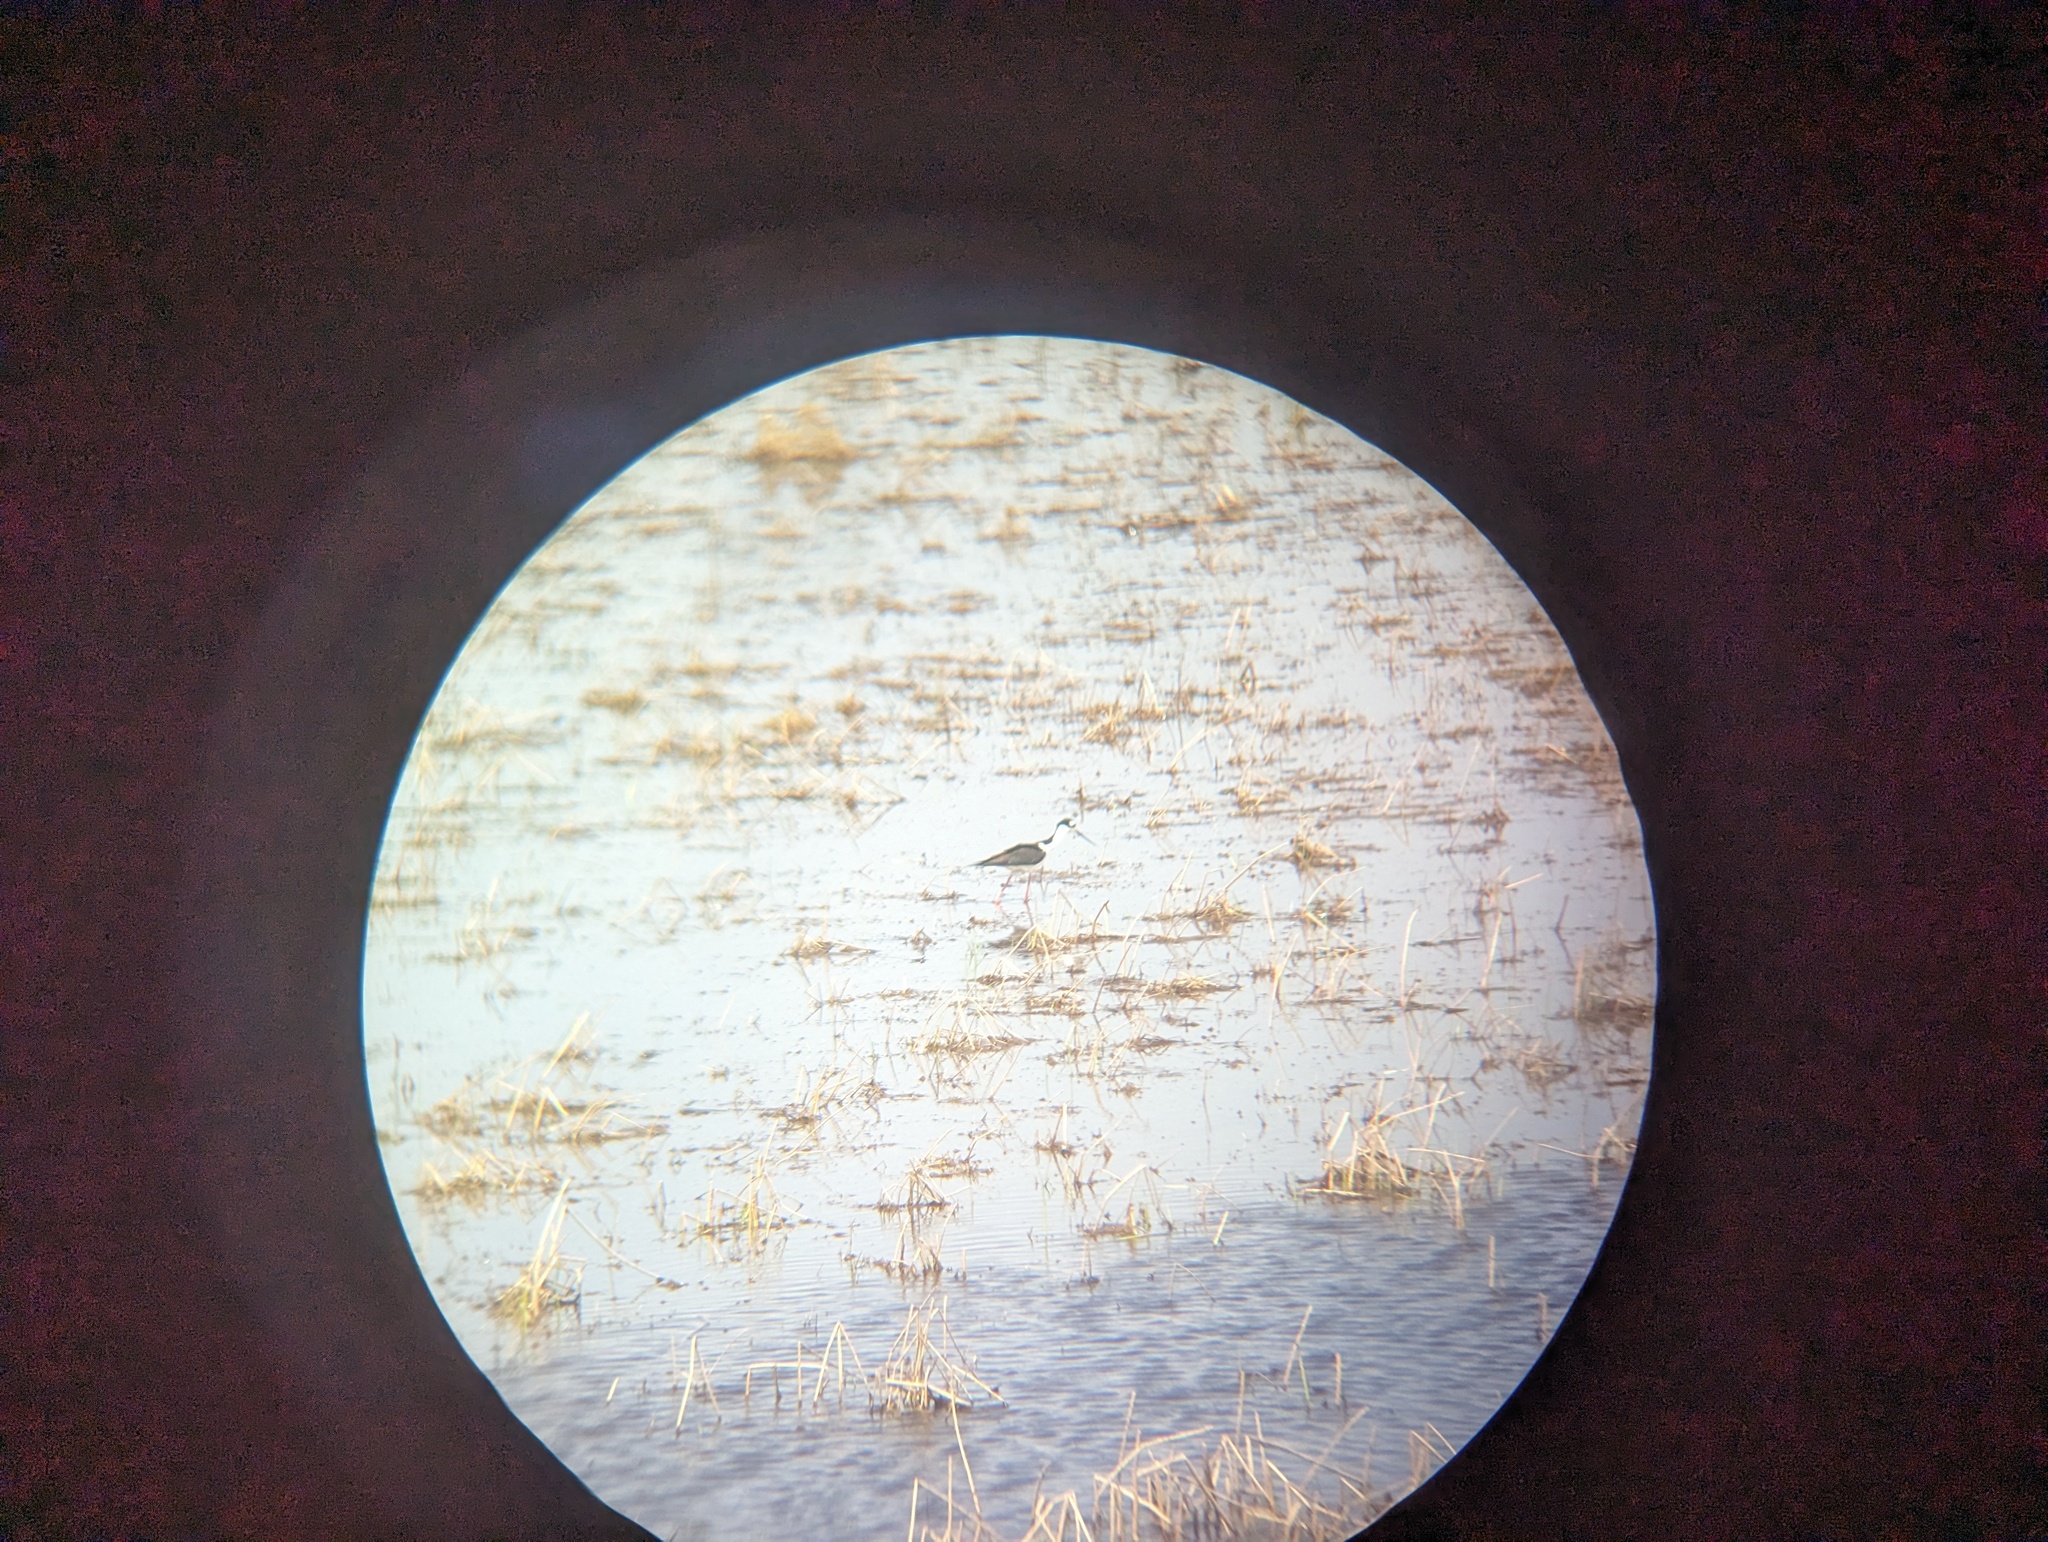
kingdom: Animalia
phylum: Chordata
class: Aves
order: Charadriiformes
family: Recurvirostridae
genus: Himantopus
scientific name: Himantopus mexicanus
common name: Black-necked stilt
